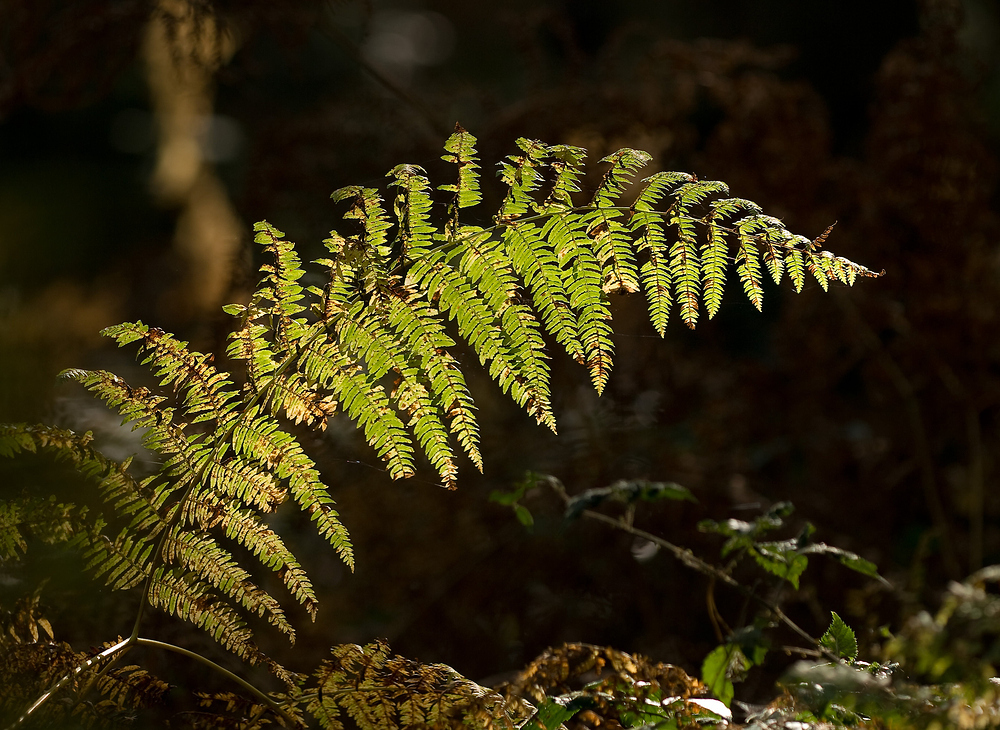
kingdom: Plantae
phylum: Tracheophyta
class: Polypodiopsida
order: Polypodiales
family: Dennstaedtiaceae
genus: Pteridium
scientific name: Pteridium aquilinum
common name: Bracken
